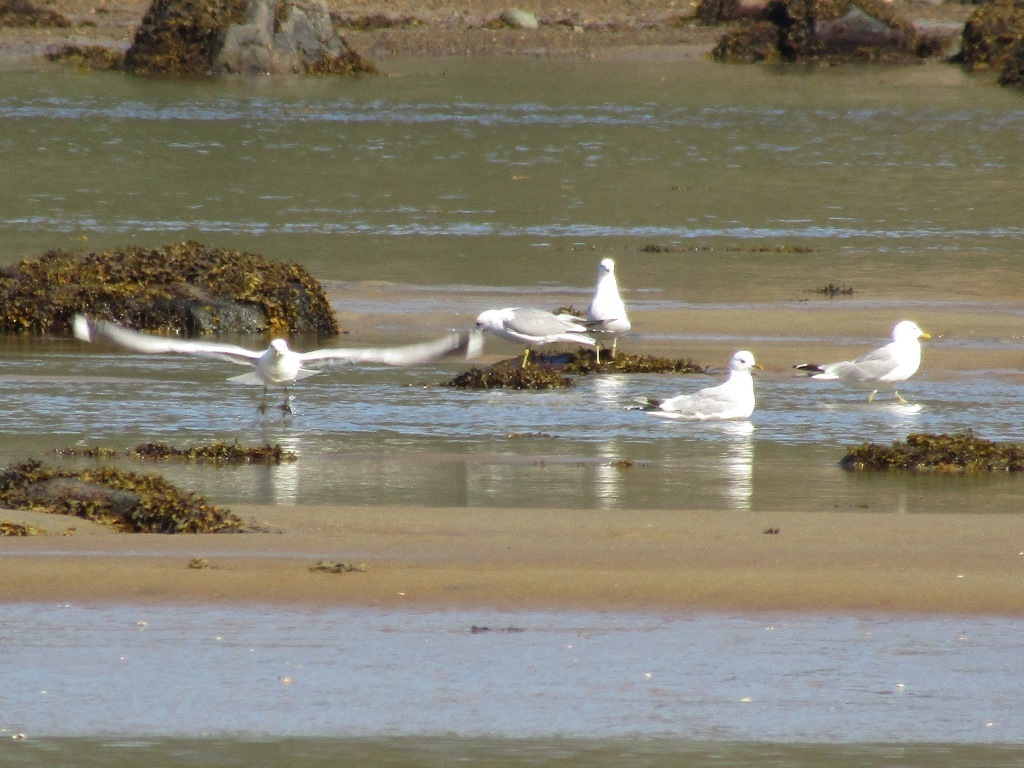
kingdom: Animalia
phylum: Chordata
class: Aves
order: Charadriiformes
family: Laridae
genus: Larus
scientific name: Larus canus
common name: Mew gull
